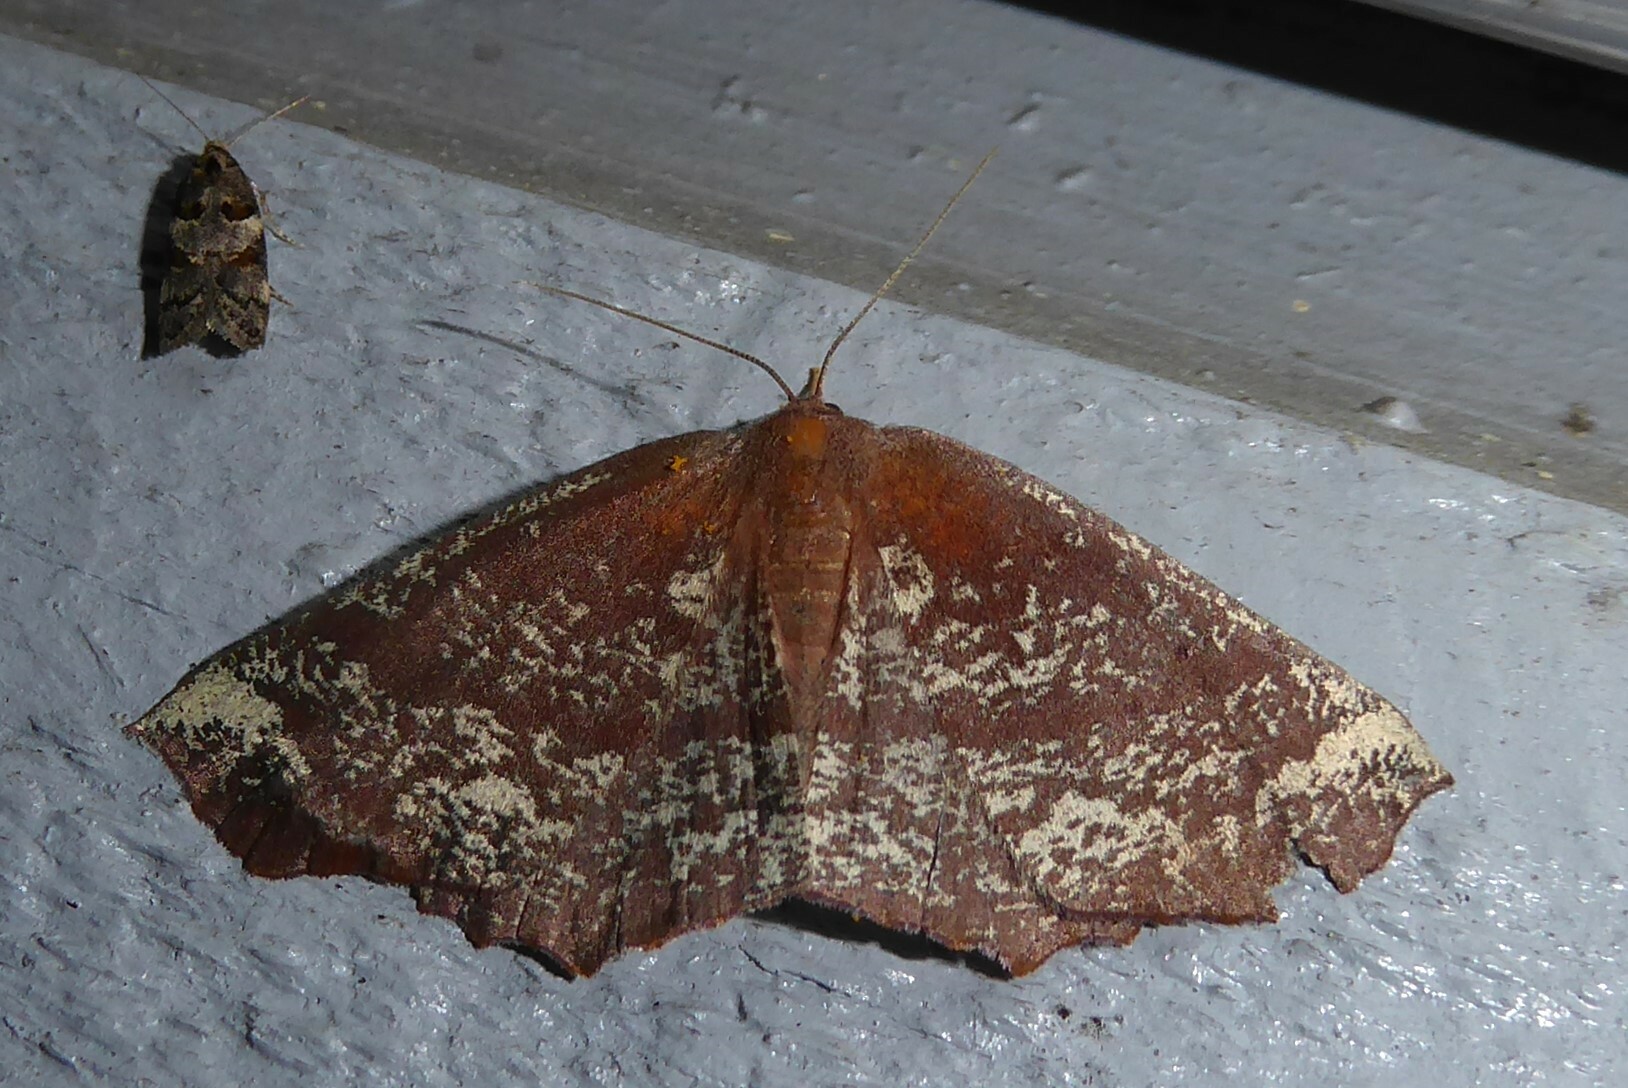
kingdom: Animalia
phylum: Arthropoda
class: Insecta
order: Lepidoptera
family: Geometridae
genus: Xyridacma
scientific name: Xyridacma ustaria
